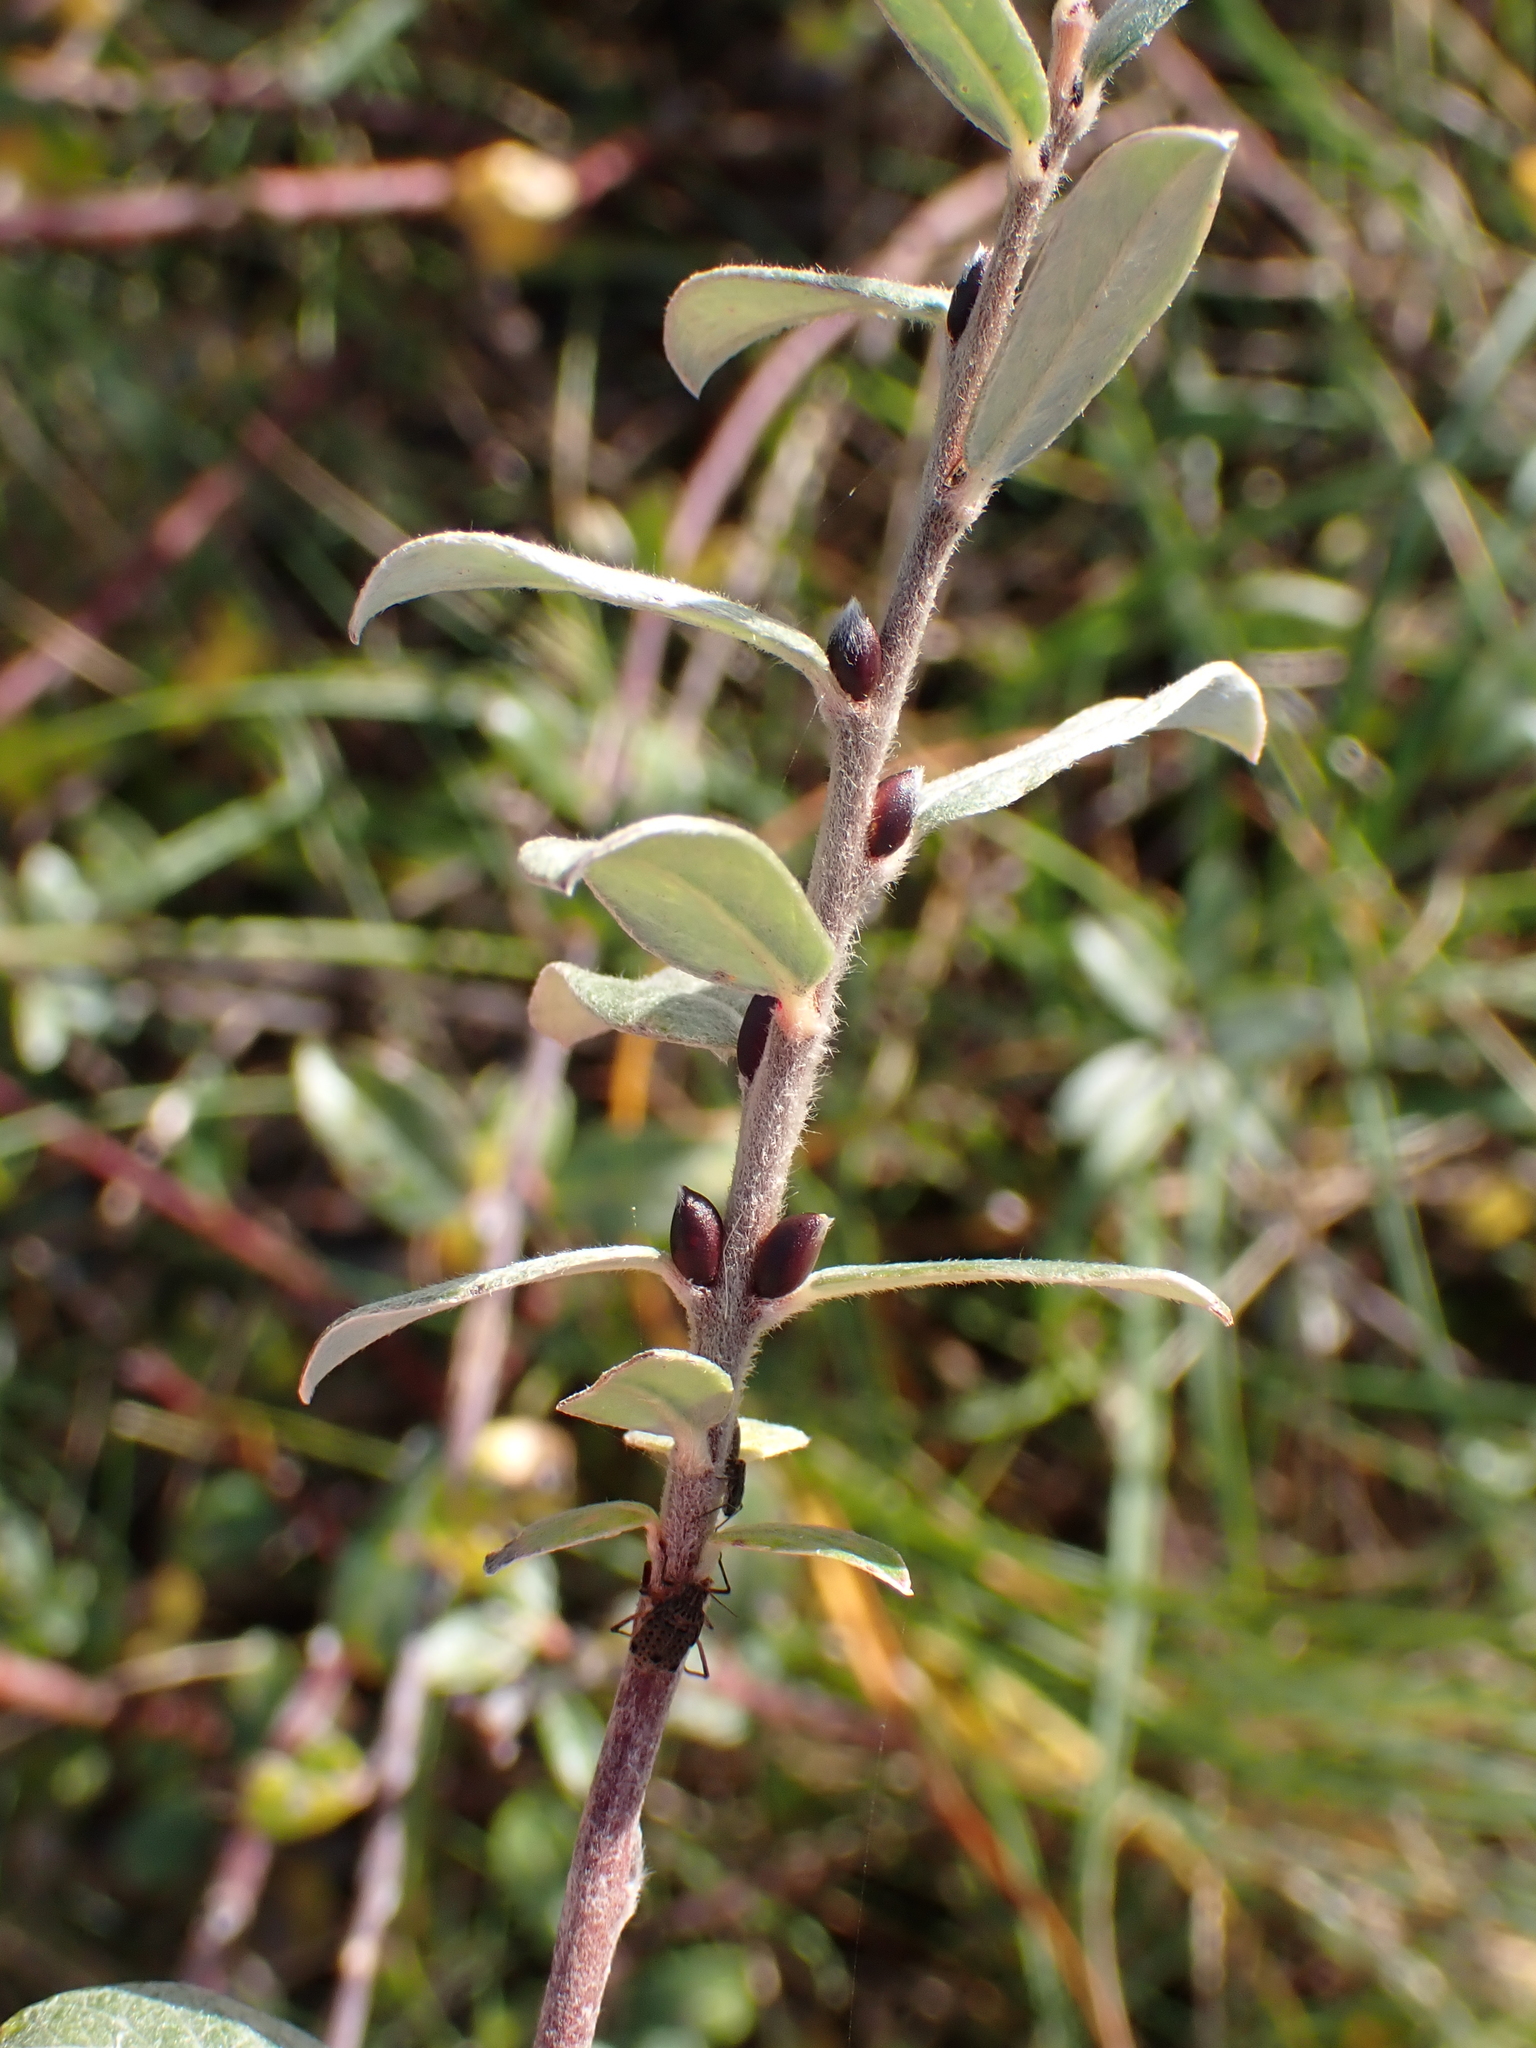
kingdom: Plantae
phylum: Tracheophyta
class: Magnoliopsida
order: Malpighiales
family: Salicaceae
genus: Salix
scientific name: Salix repens
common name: Creeping willow
